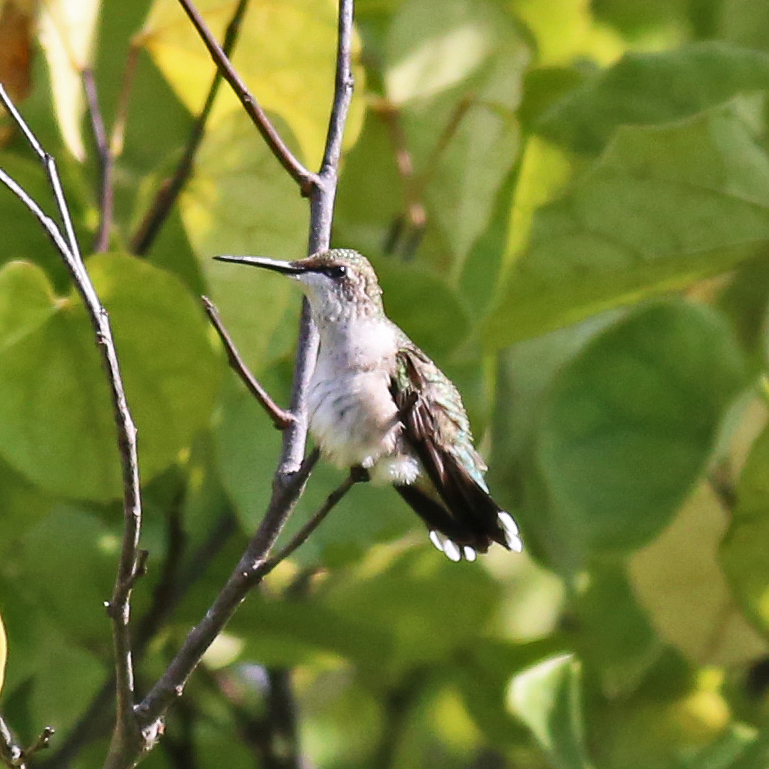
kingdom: Animalia
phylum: Chordata
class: Aves
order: Apodiformes
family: Trochilidae
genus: Archilochus
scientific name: Archilochus colubris
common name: Ruby-throated hummingbird
